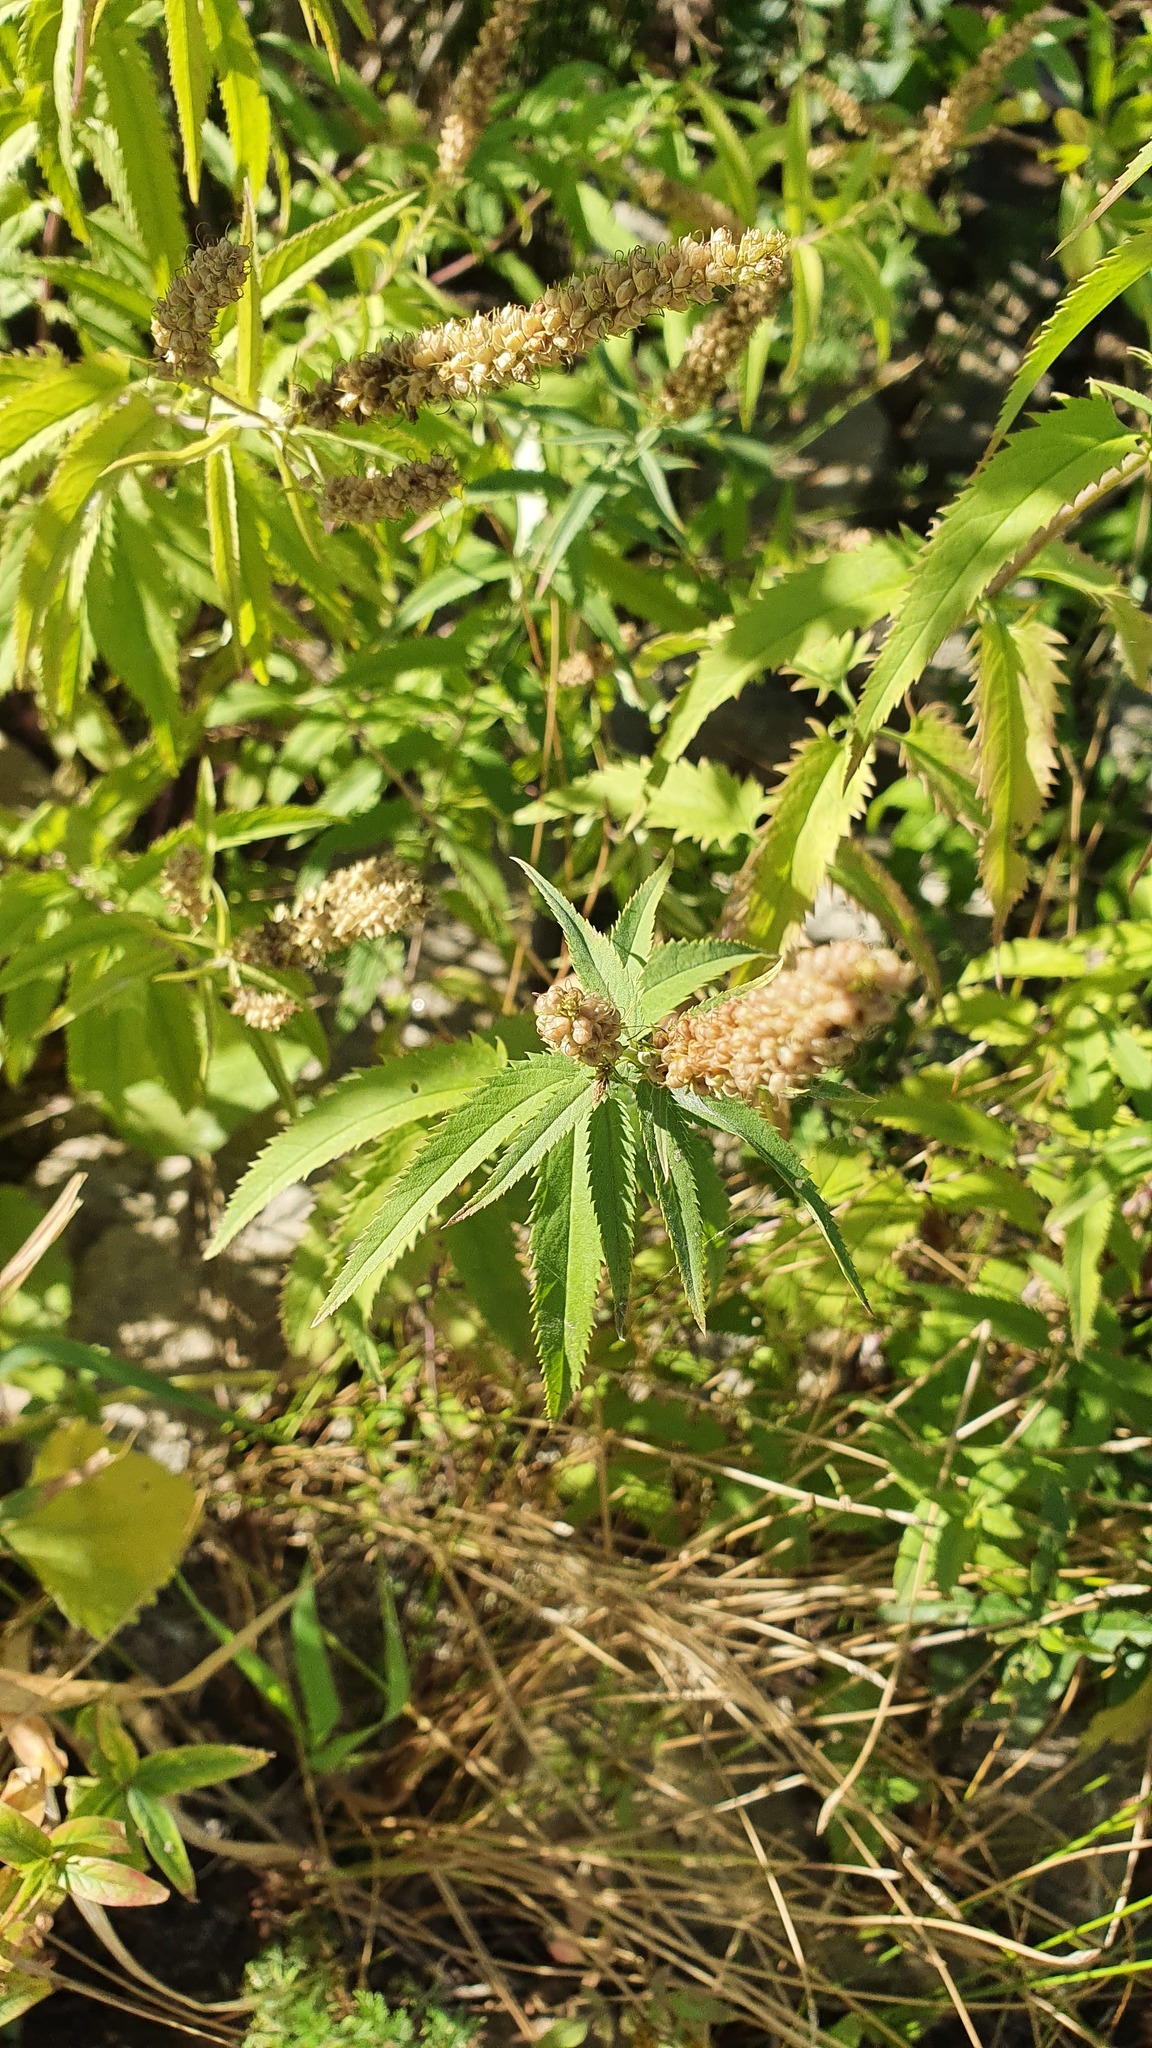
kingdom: Plantae
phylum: Tracheophyta
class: Magnoliopsida
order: Lamiales
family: Plantaginaceae
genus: Veronica
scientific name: Veronica longifolia
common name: Garden speedwell
